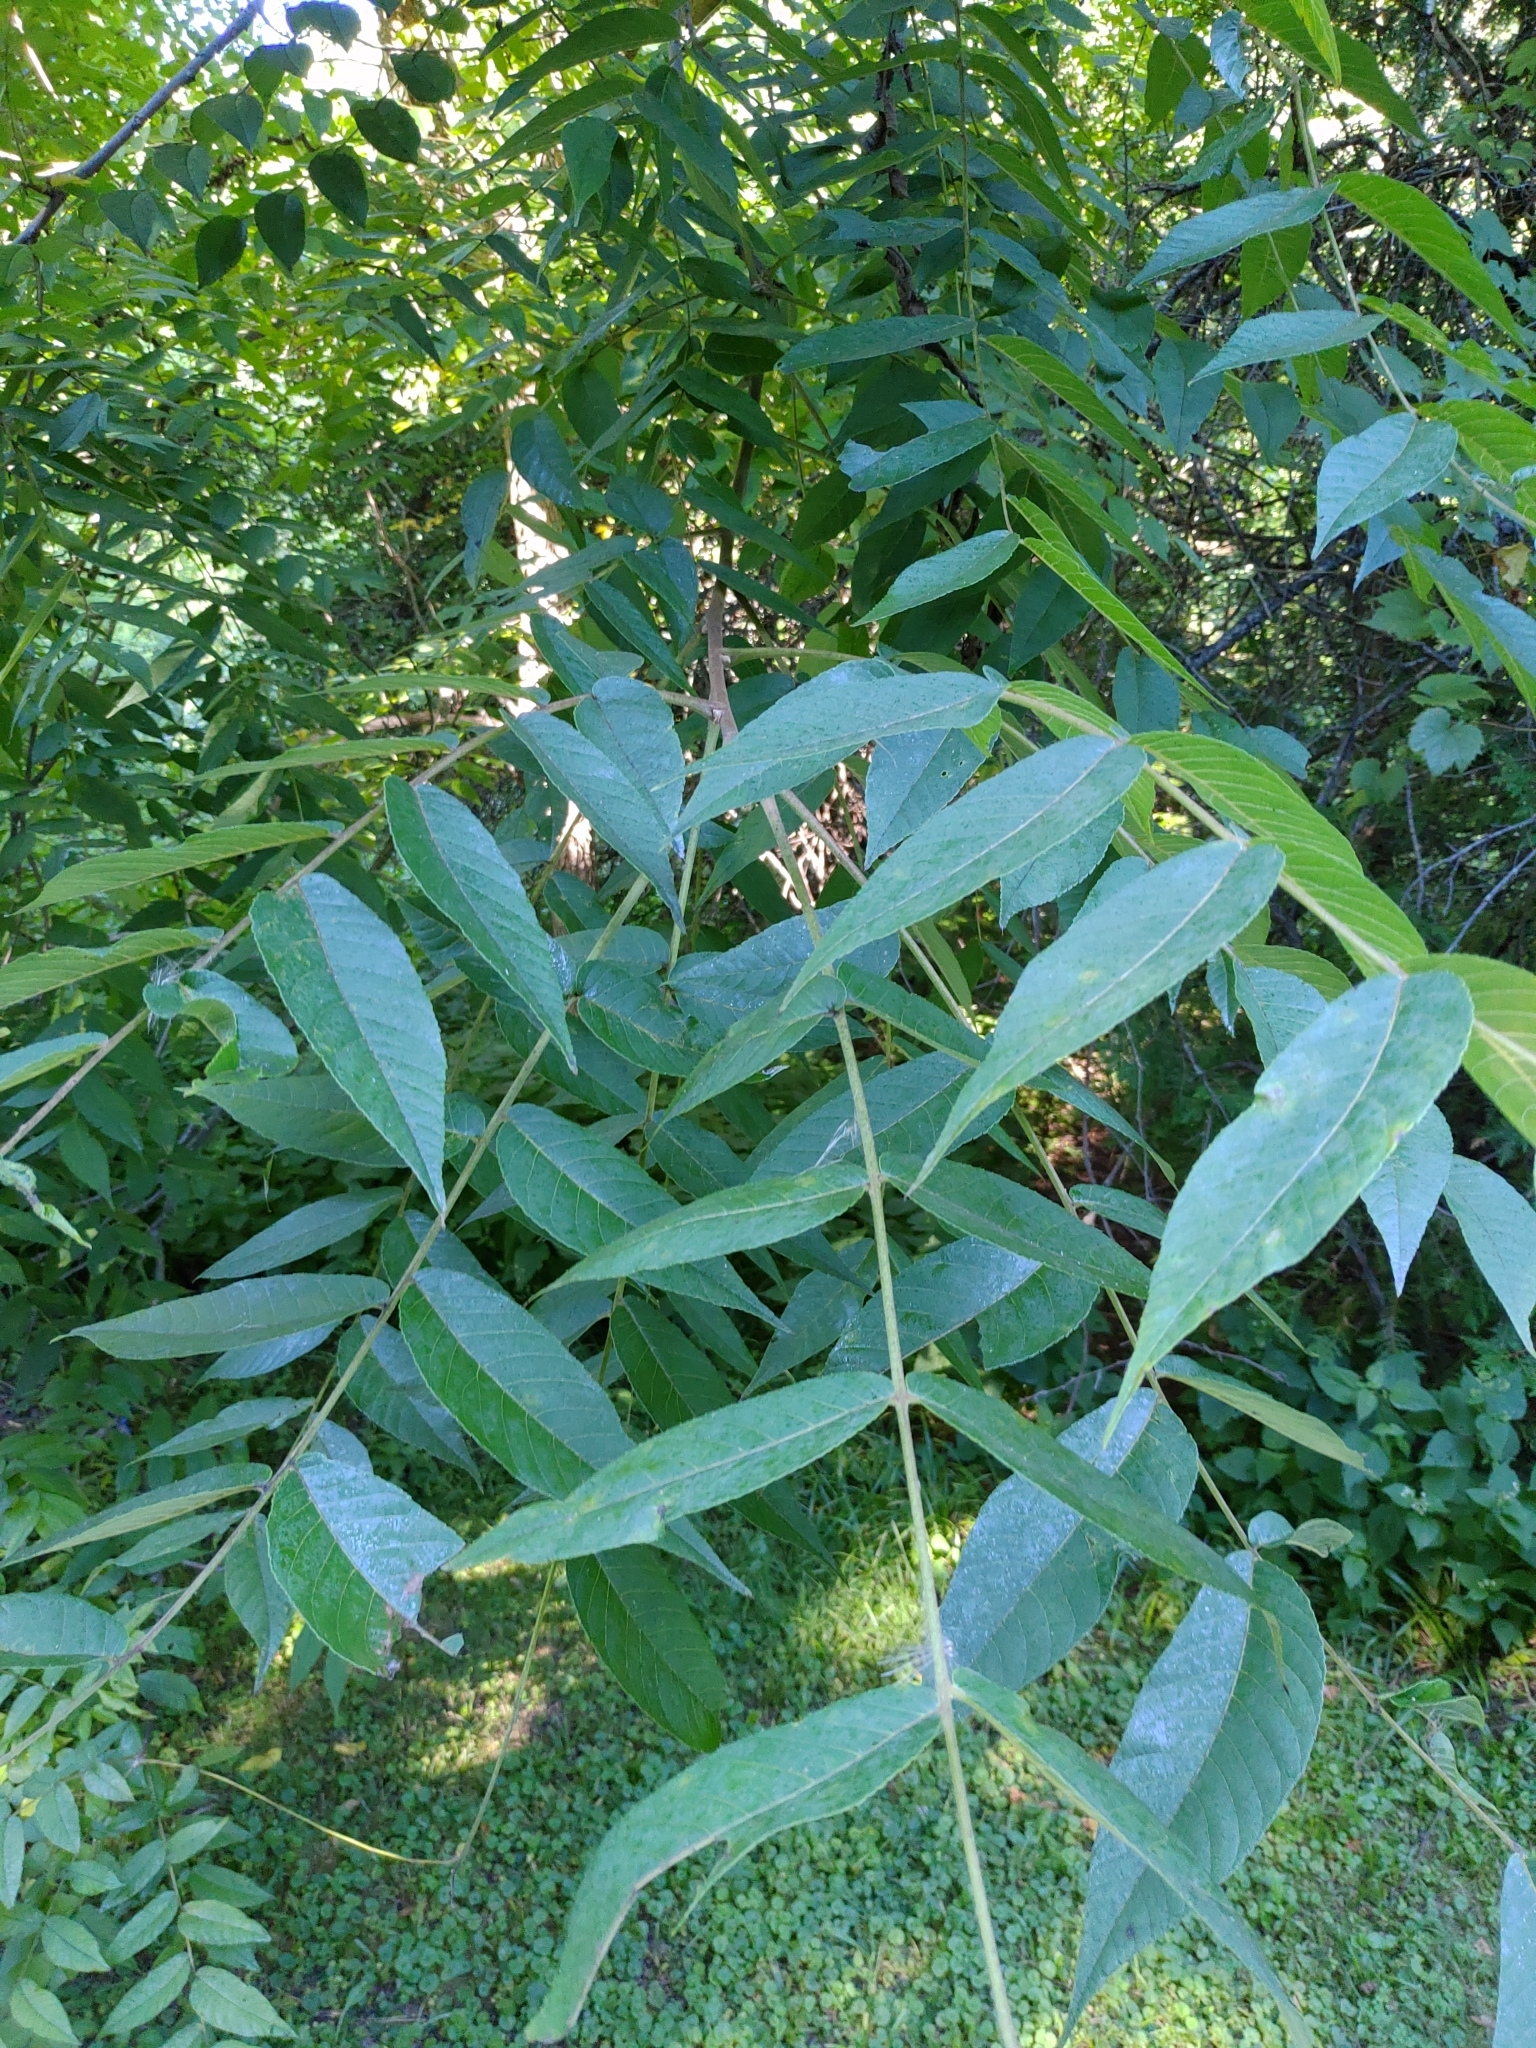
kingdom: Plantae
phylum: Tracheophyta
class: Magnoliopsida
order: Fagales
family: Juglandaceae
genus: Juglans
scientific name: Juglans nigra
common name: Black walnut
